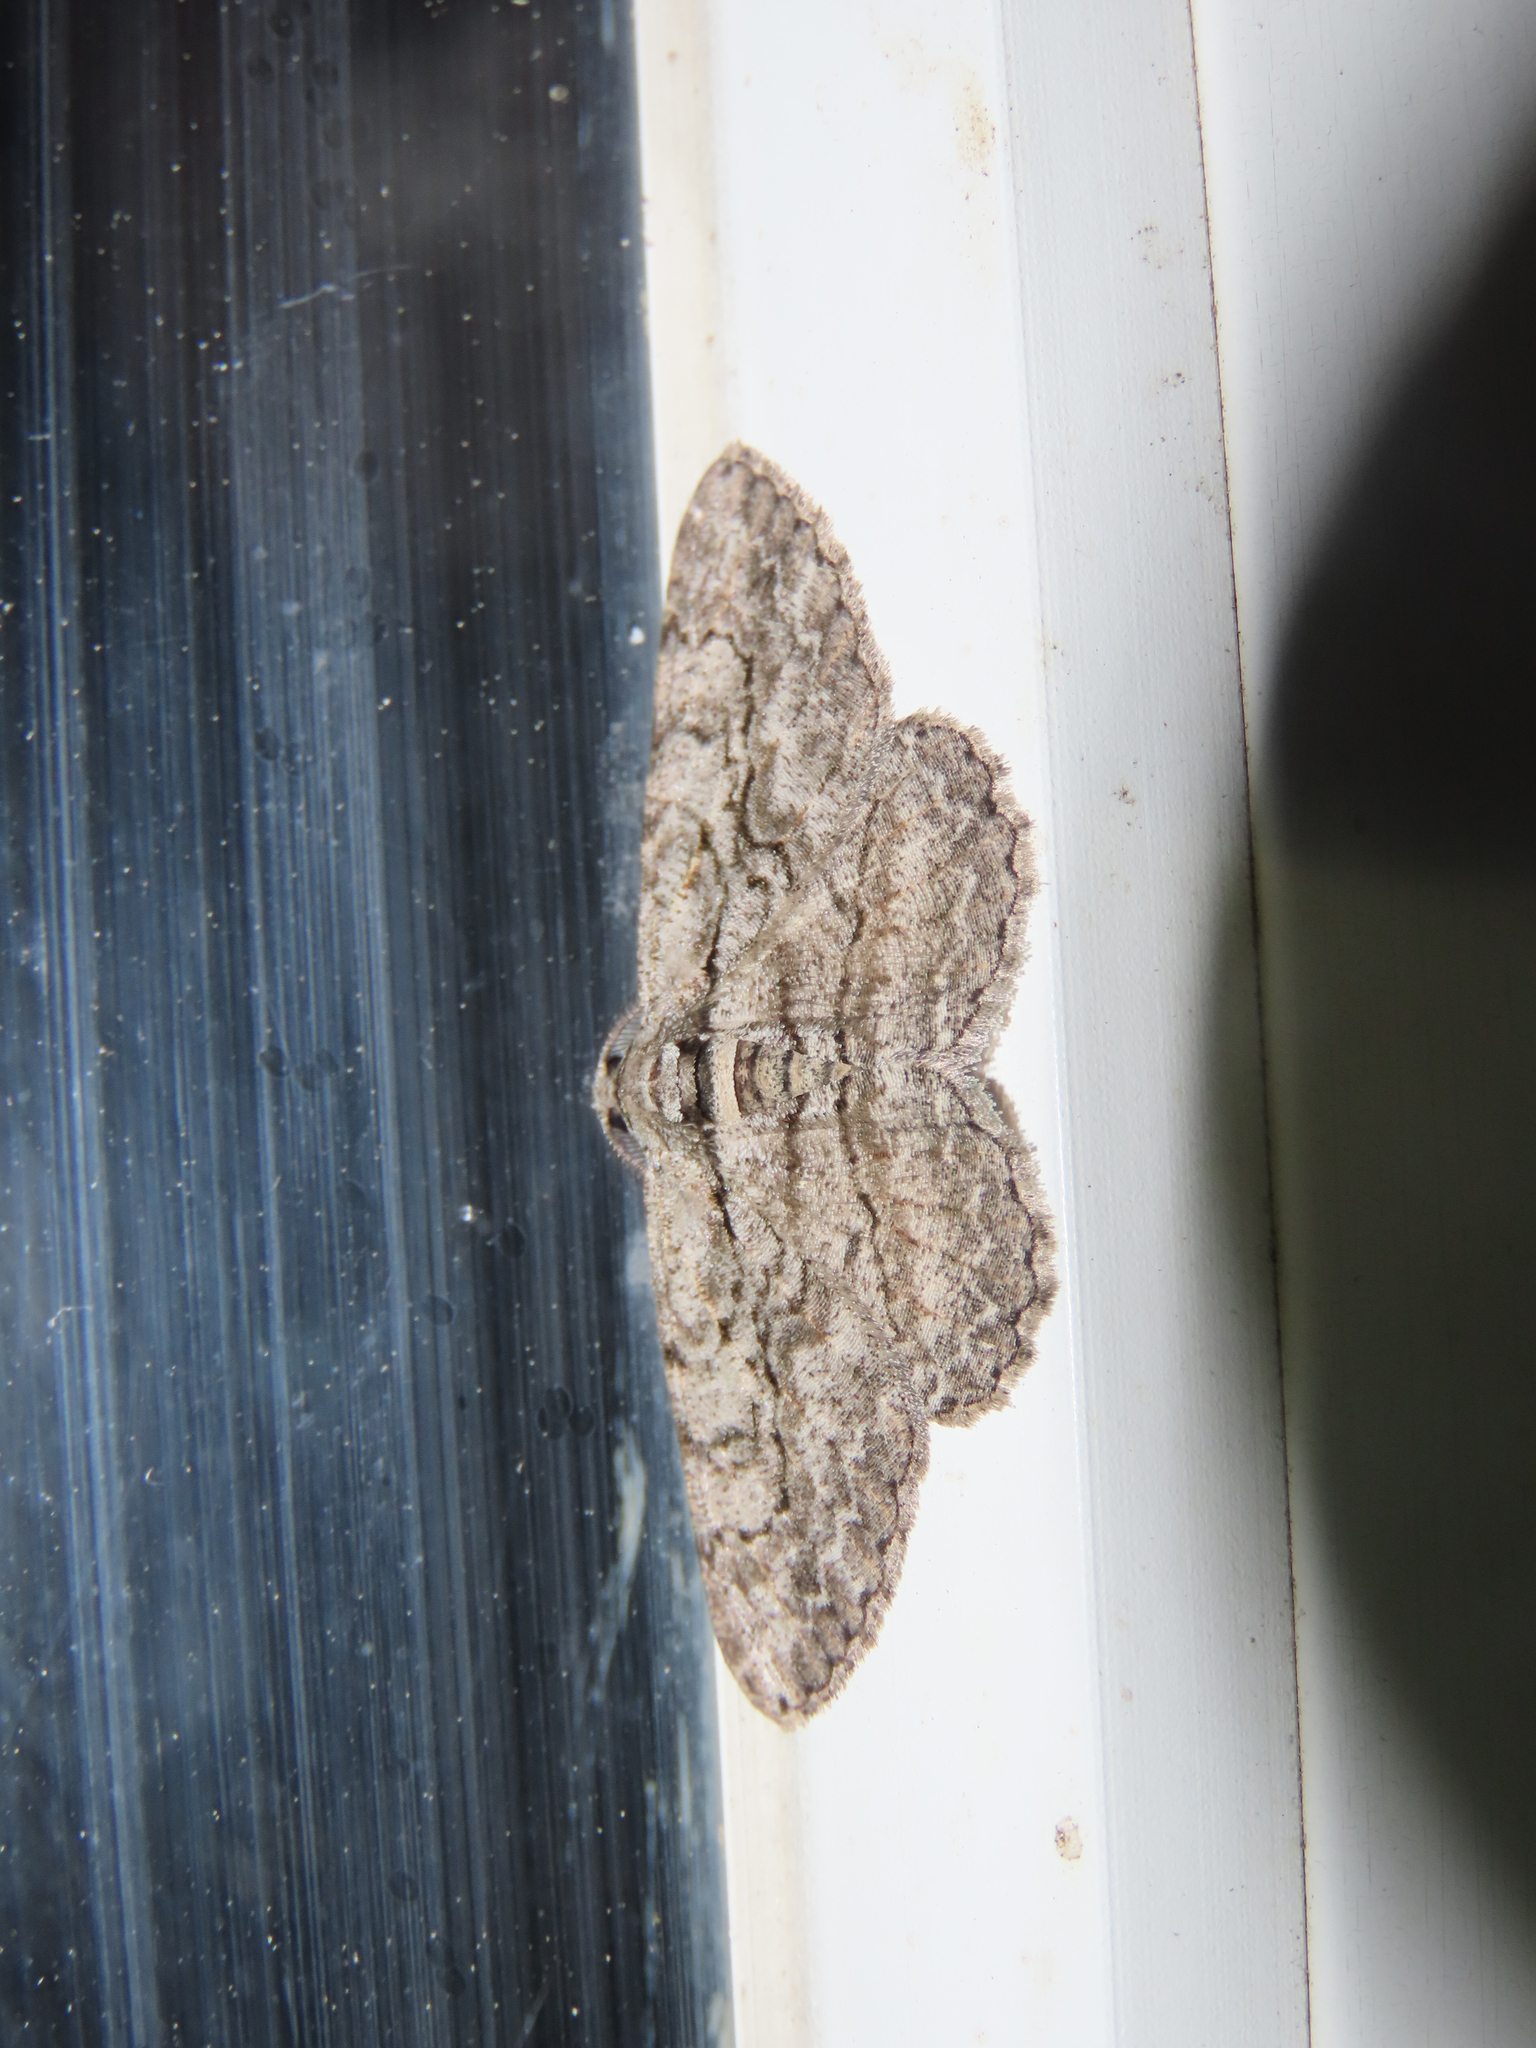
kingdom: Animalia
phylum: Arthropoda
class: Insecta
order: Lepidoptera
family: Geometridae
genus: Anavitrinella
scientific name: Anavitrinella pampinaria
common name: Common gray
